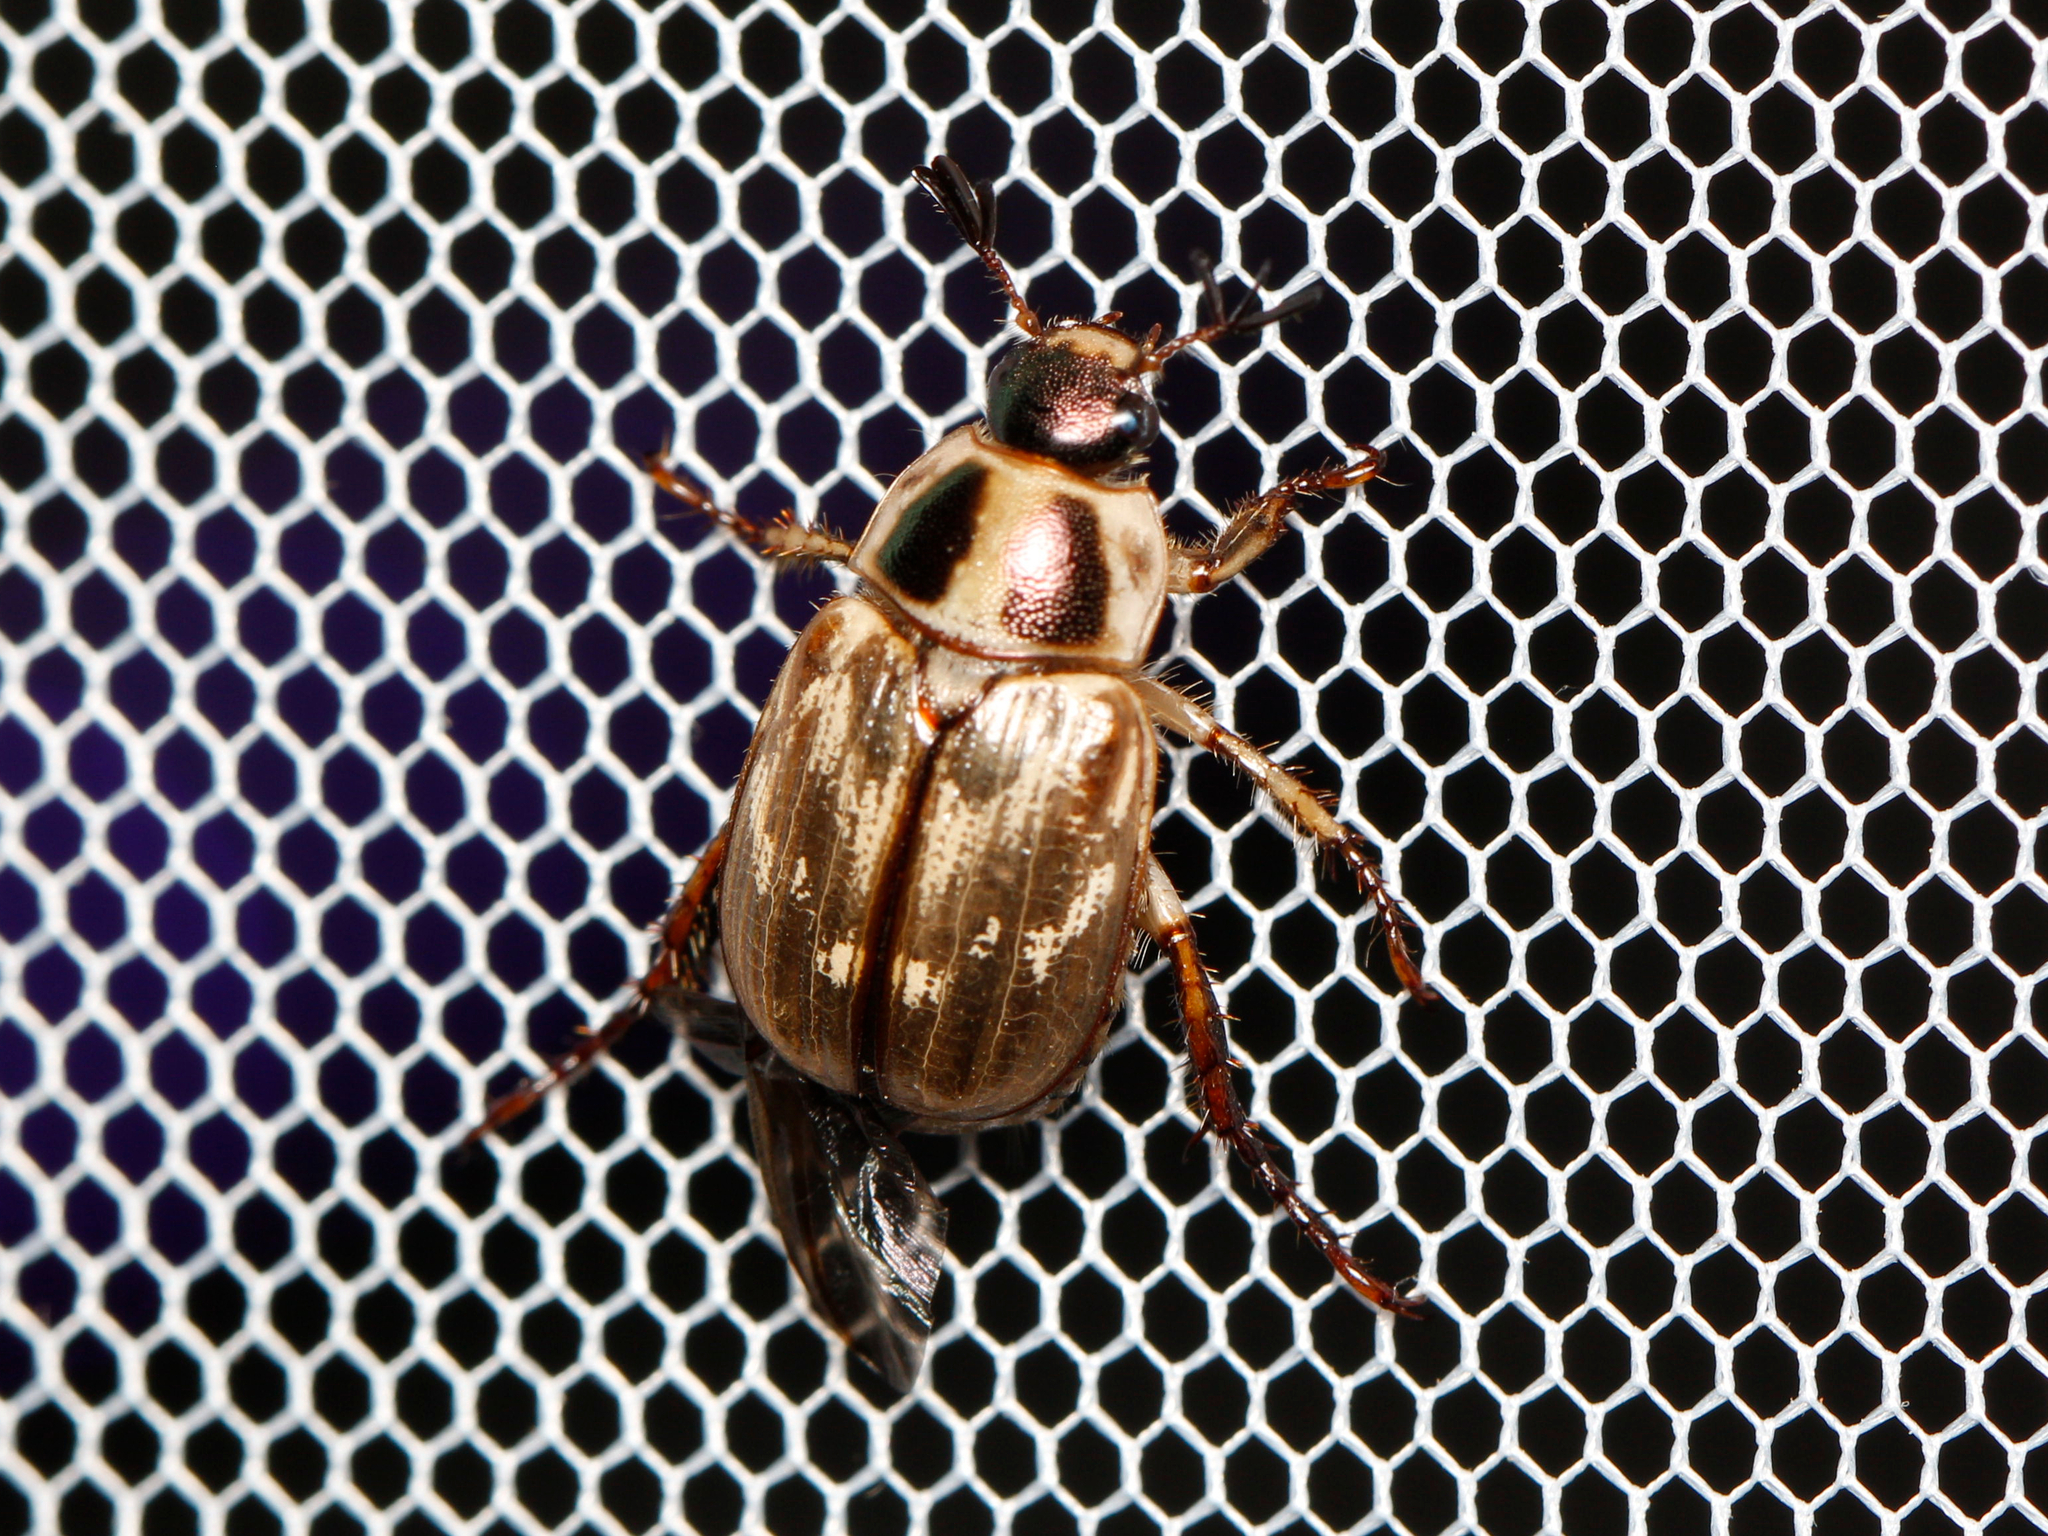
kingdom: Animalia
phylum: Arthropoda
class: Insecta
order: Coleoptera
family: Scarabaeidae
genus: Exomala
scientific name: Exomala orientalis
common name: Oriental beetle
